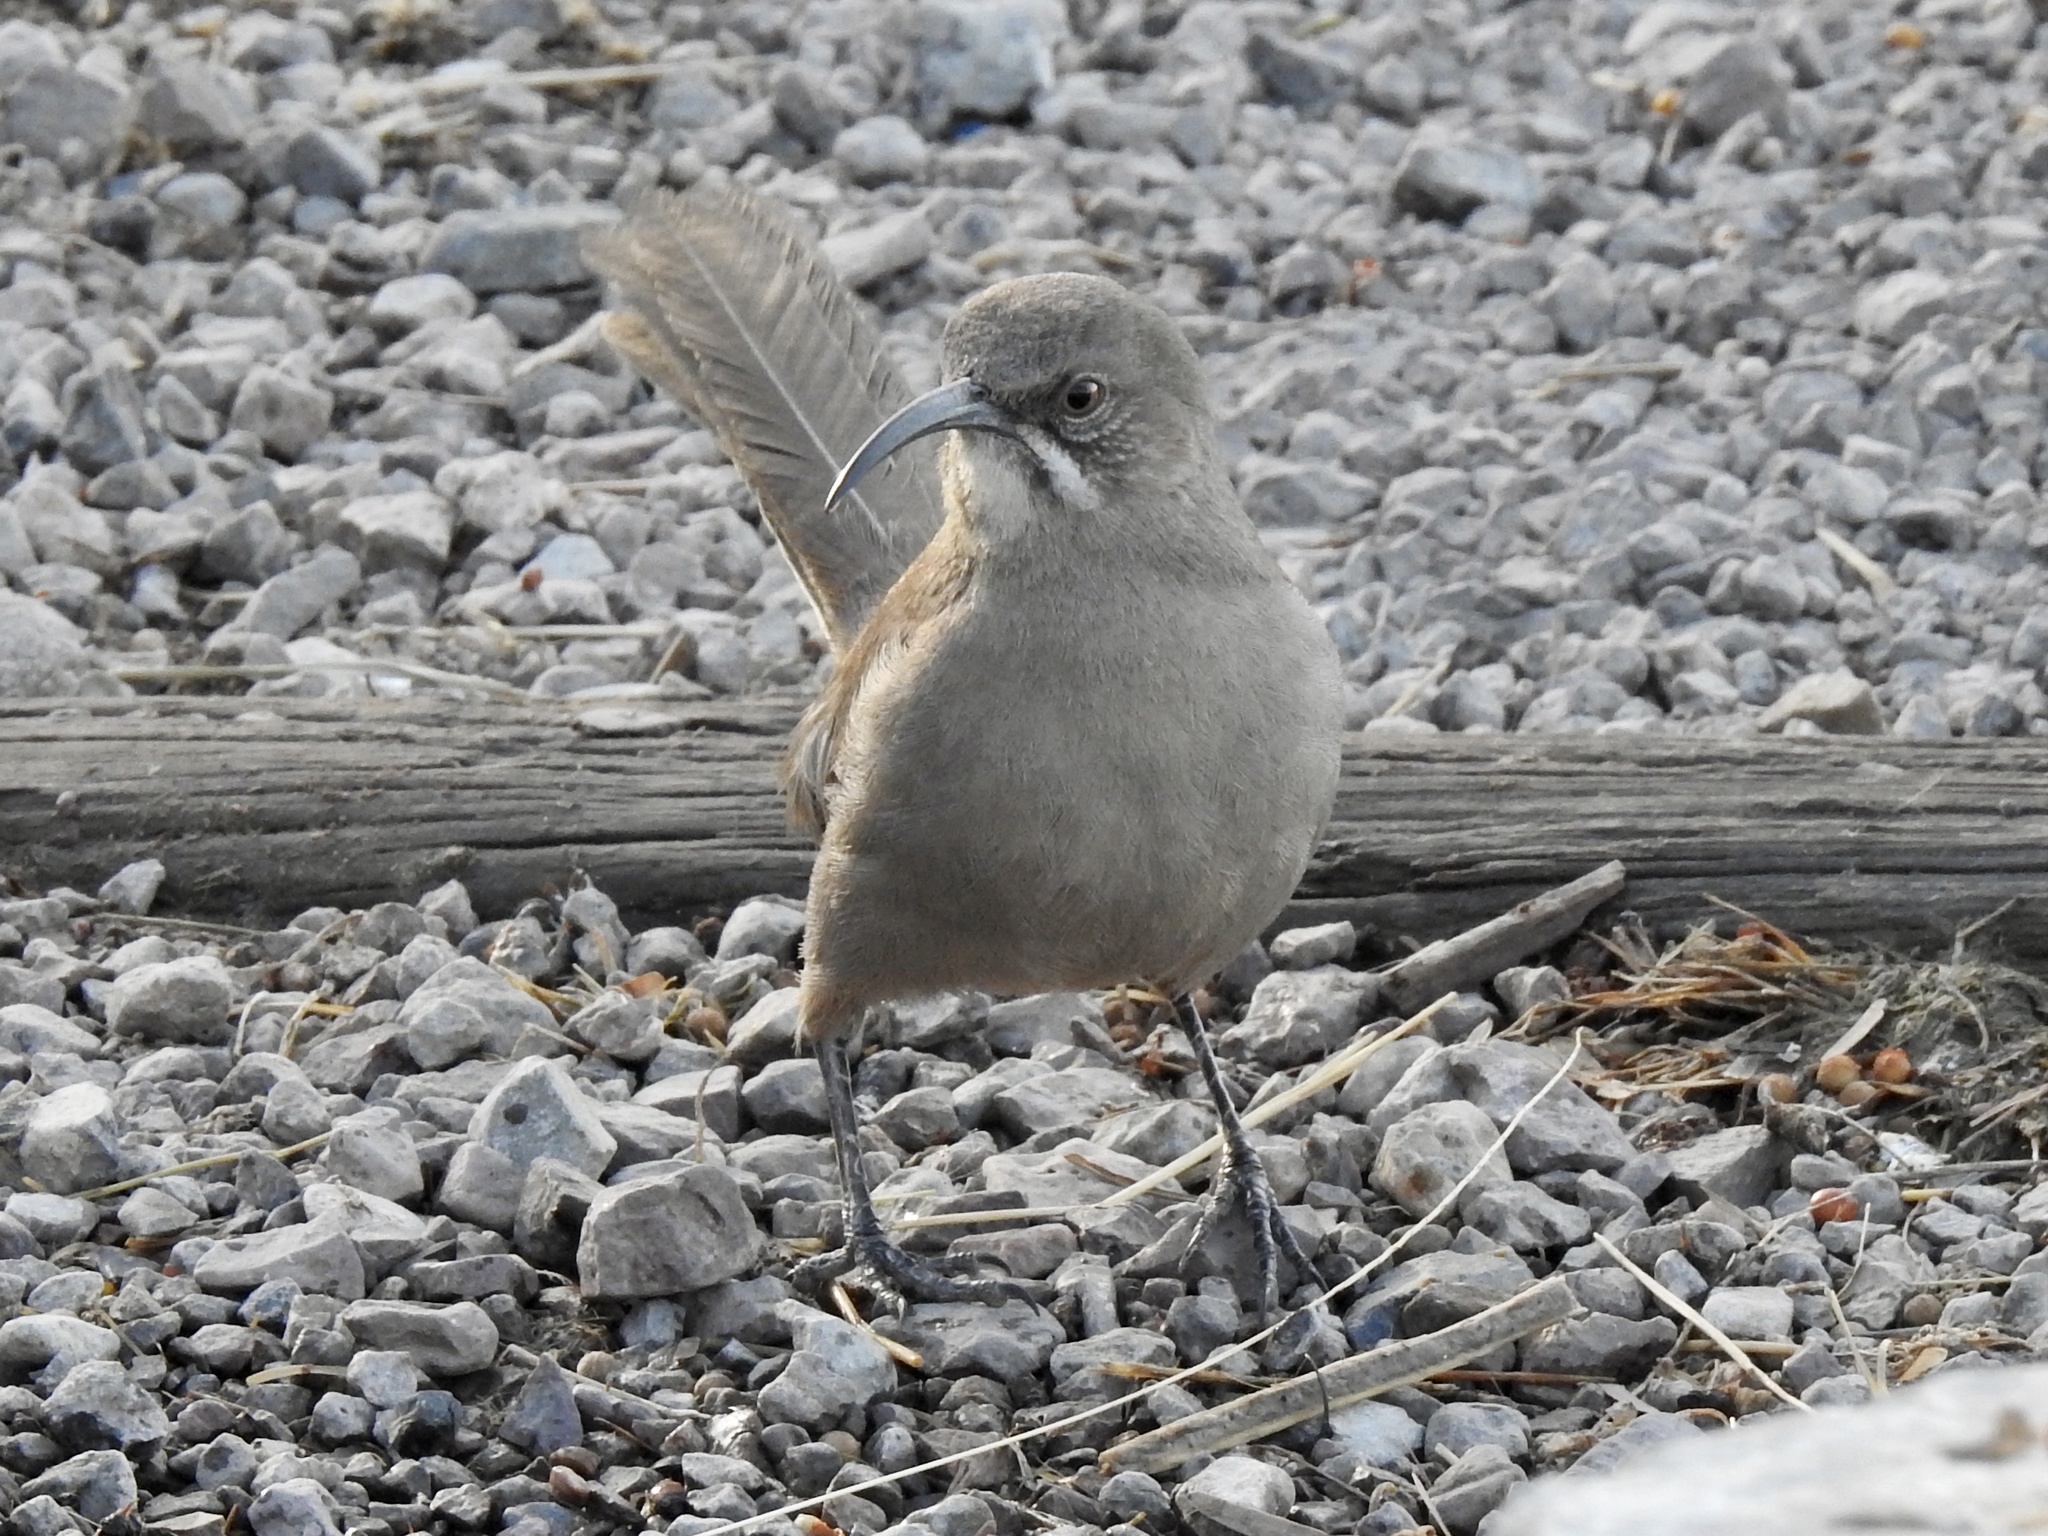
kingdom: Animalia
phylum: Chordata
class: Aves
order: Passeriformes
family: Mimidae
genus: Toxostoma
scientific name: Toxostoma crissale
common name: Crissal thrasher
